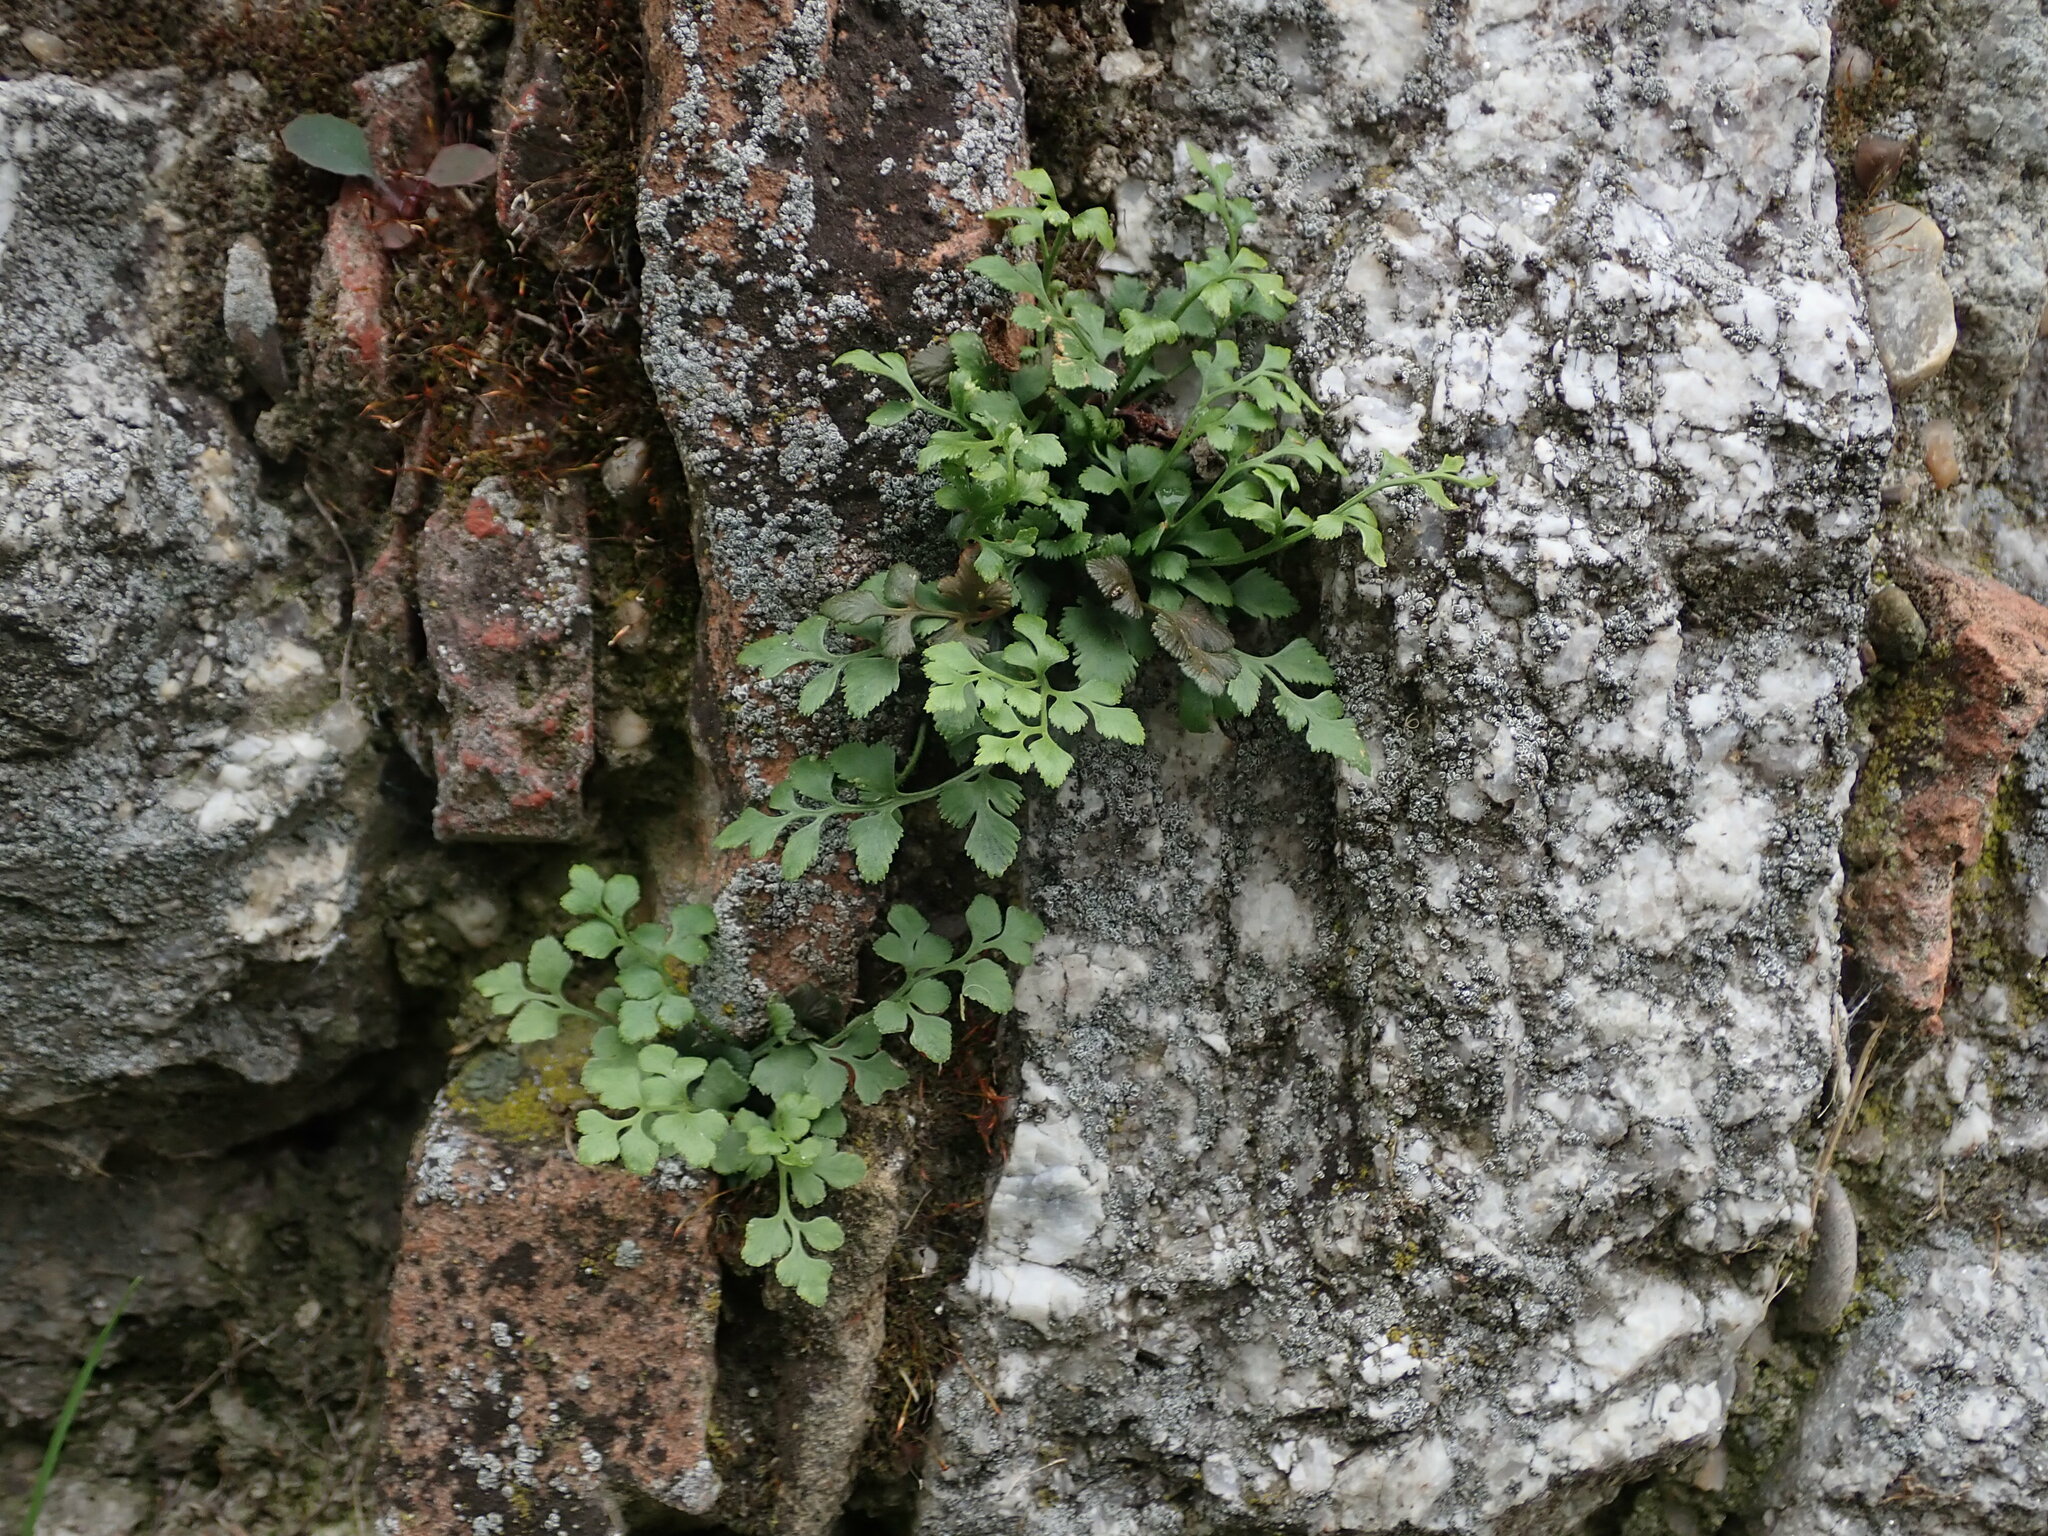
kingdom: Plantae
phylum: Tracheophyta
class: Polypodiopsida
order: Polypodiales
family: Aspleniaceae
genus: Asplenium
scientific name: Asplenium ruta-muraria
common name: Wall-rue
